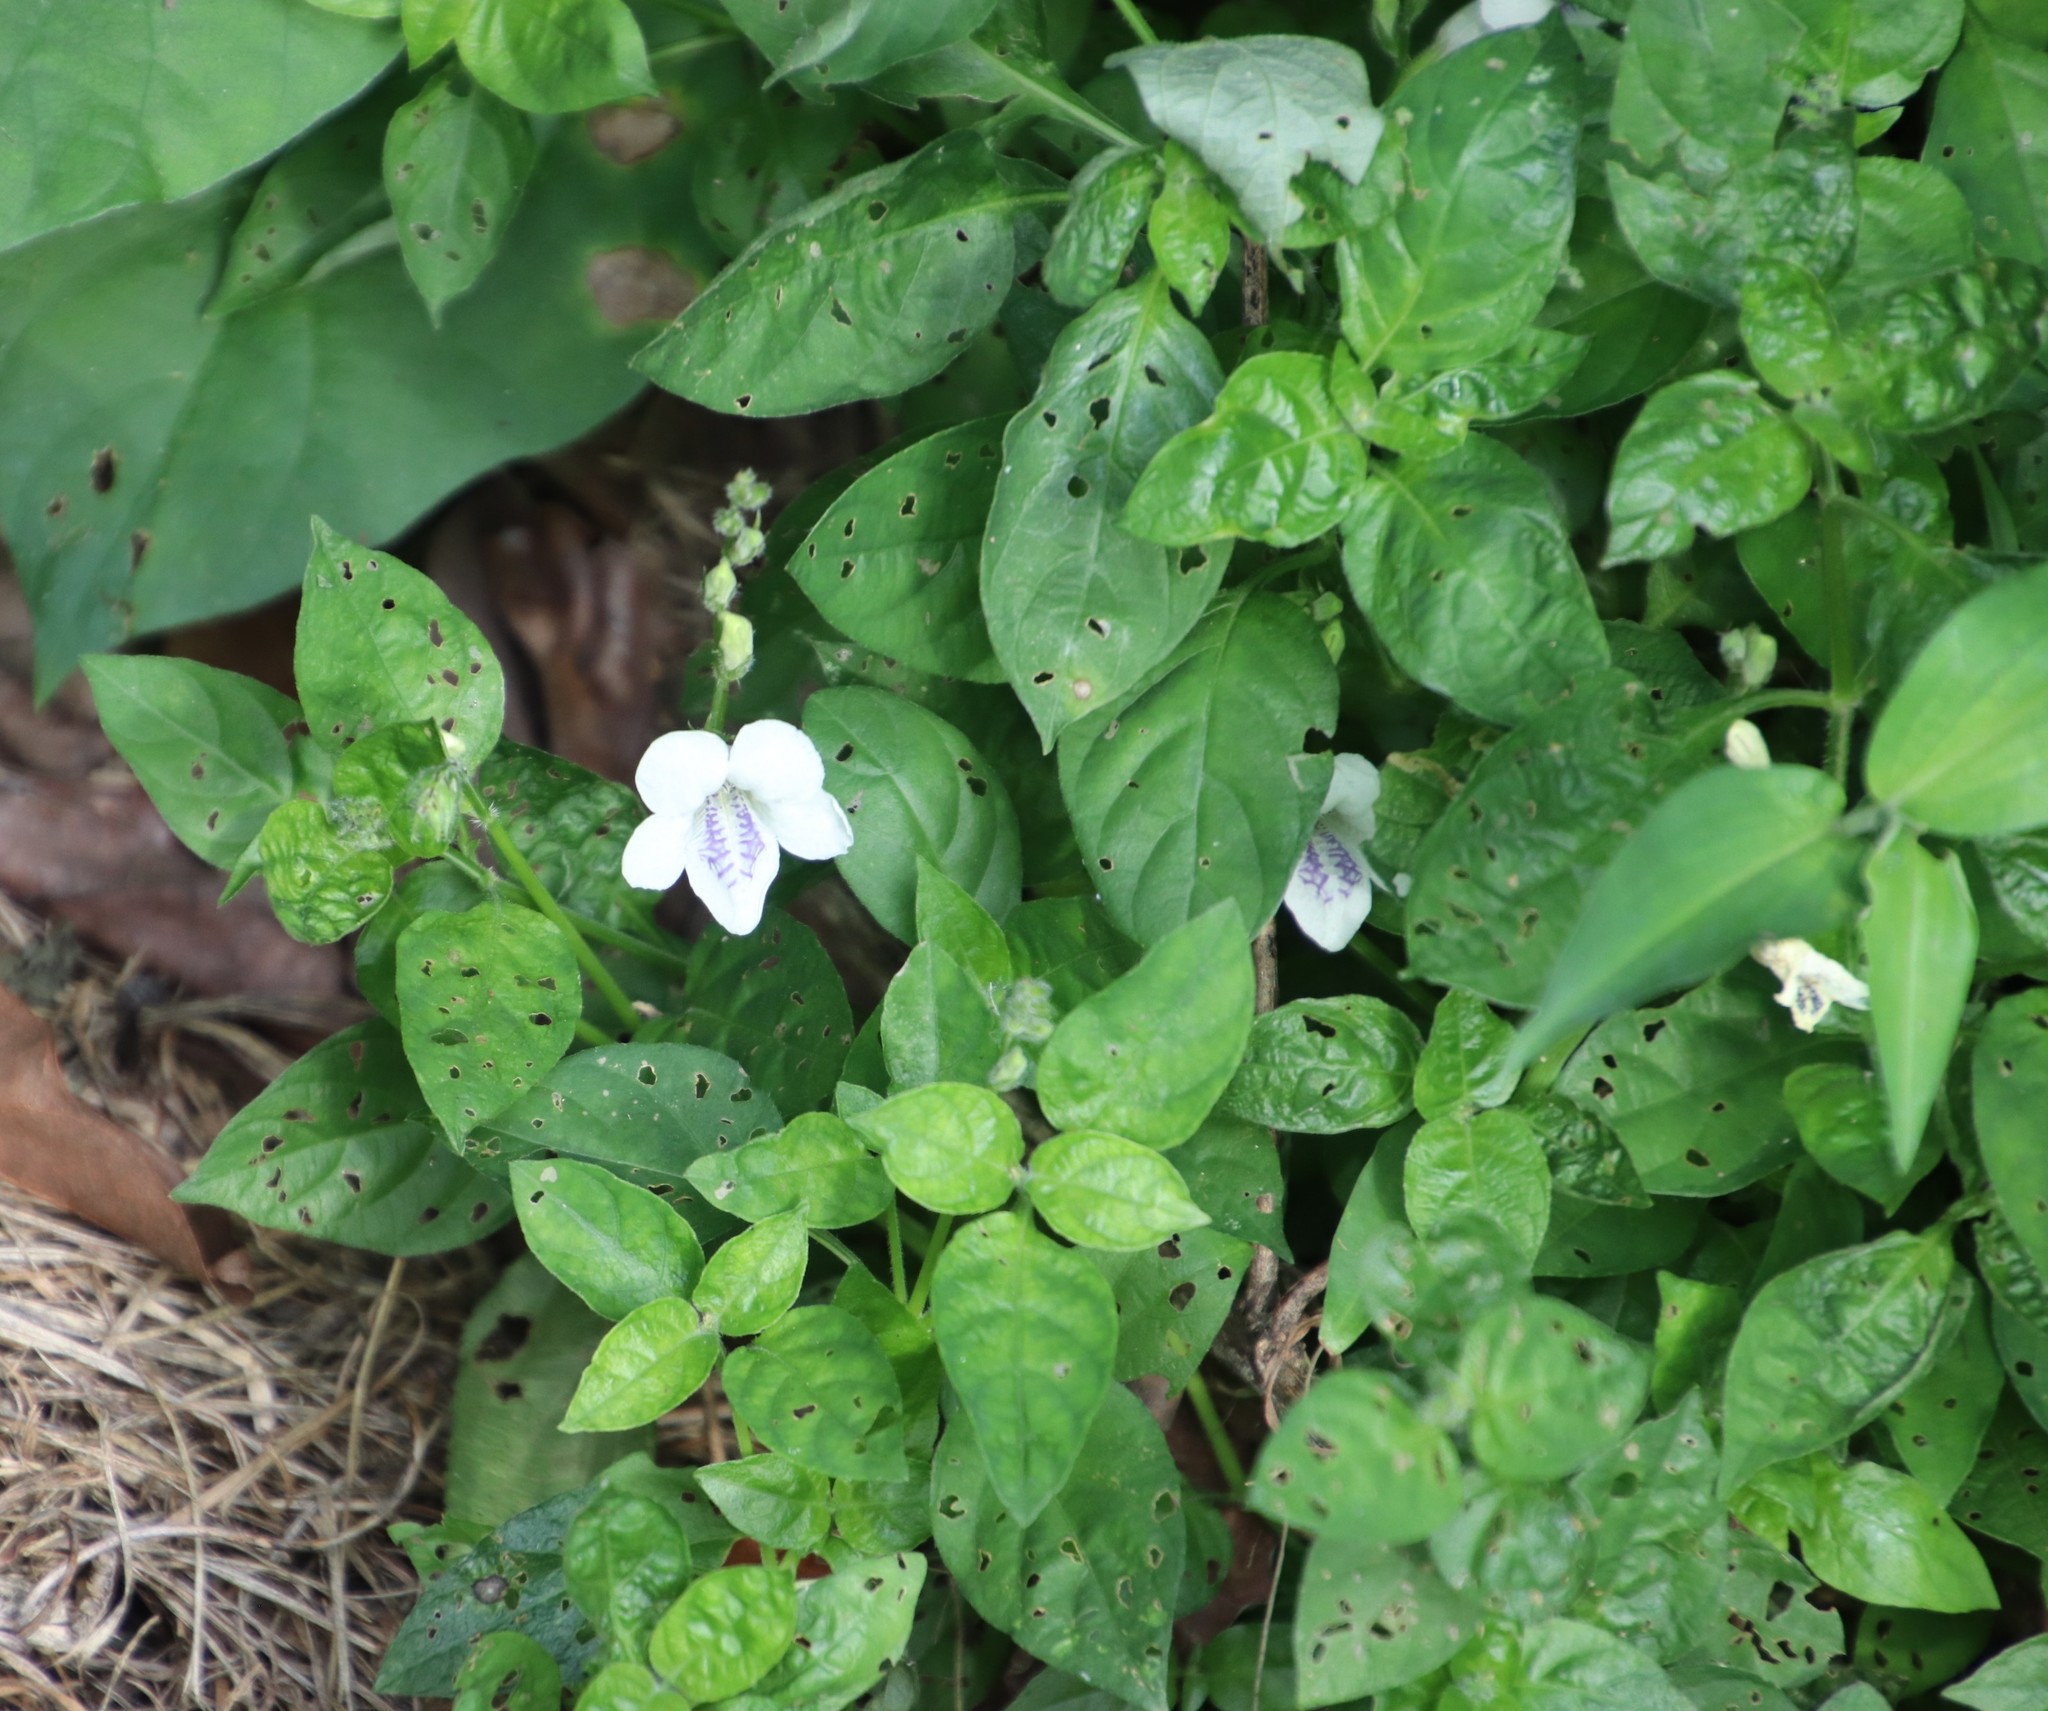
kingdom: Plantae
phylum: Tracheophyta
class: Magnoliopsida
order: Lamiales
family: Acanthaceae
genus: Asystasia
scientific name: Asystasia intrusa
